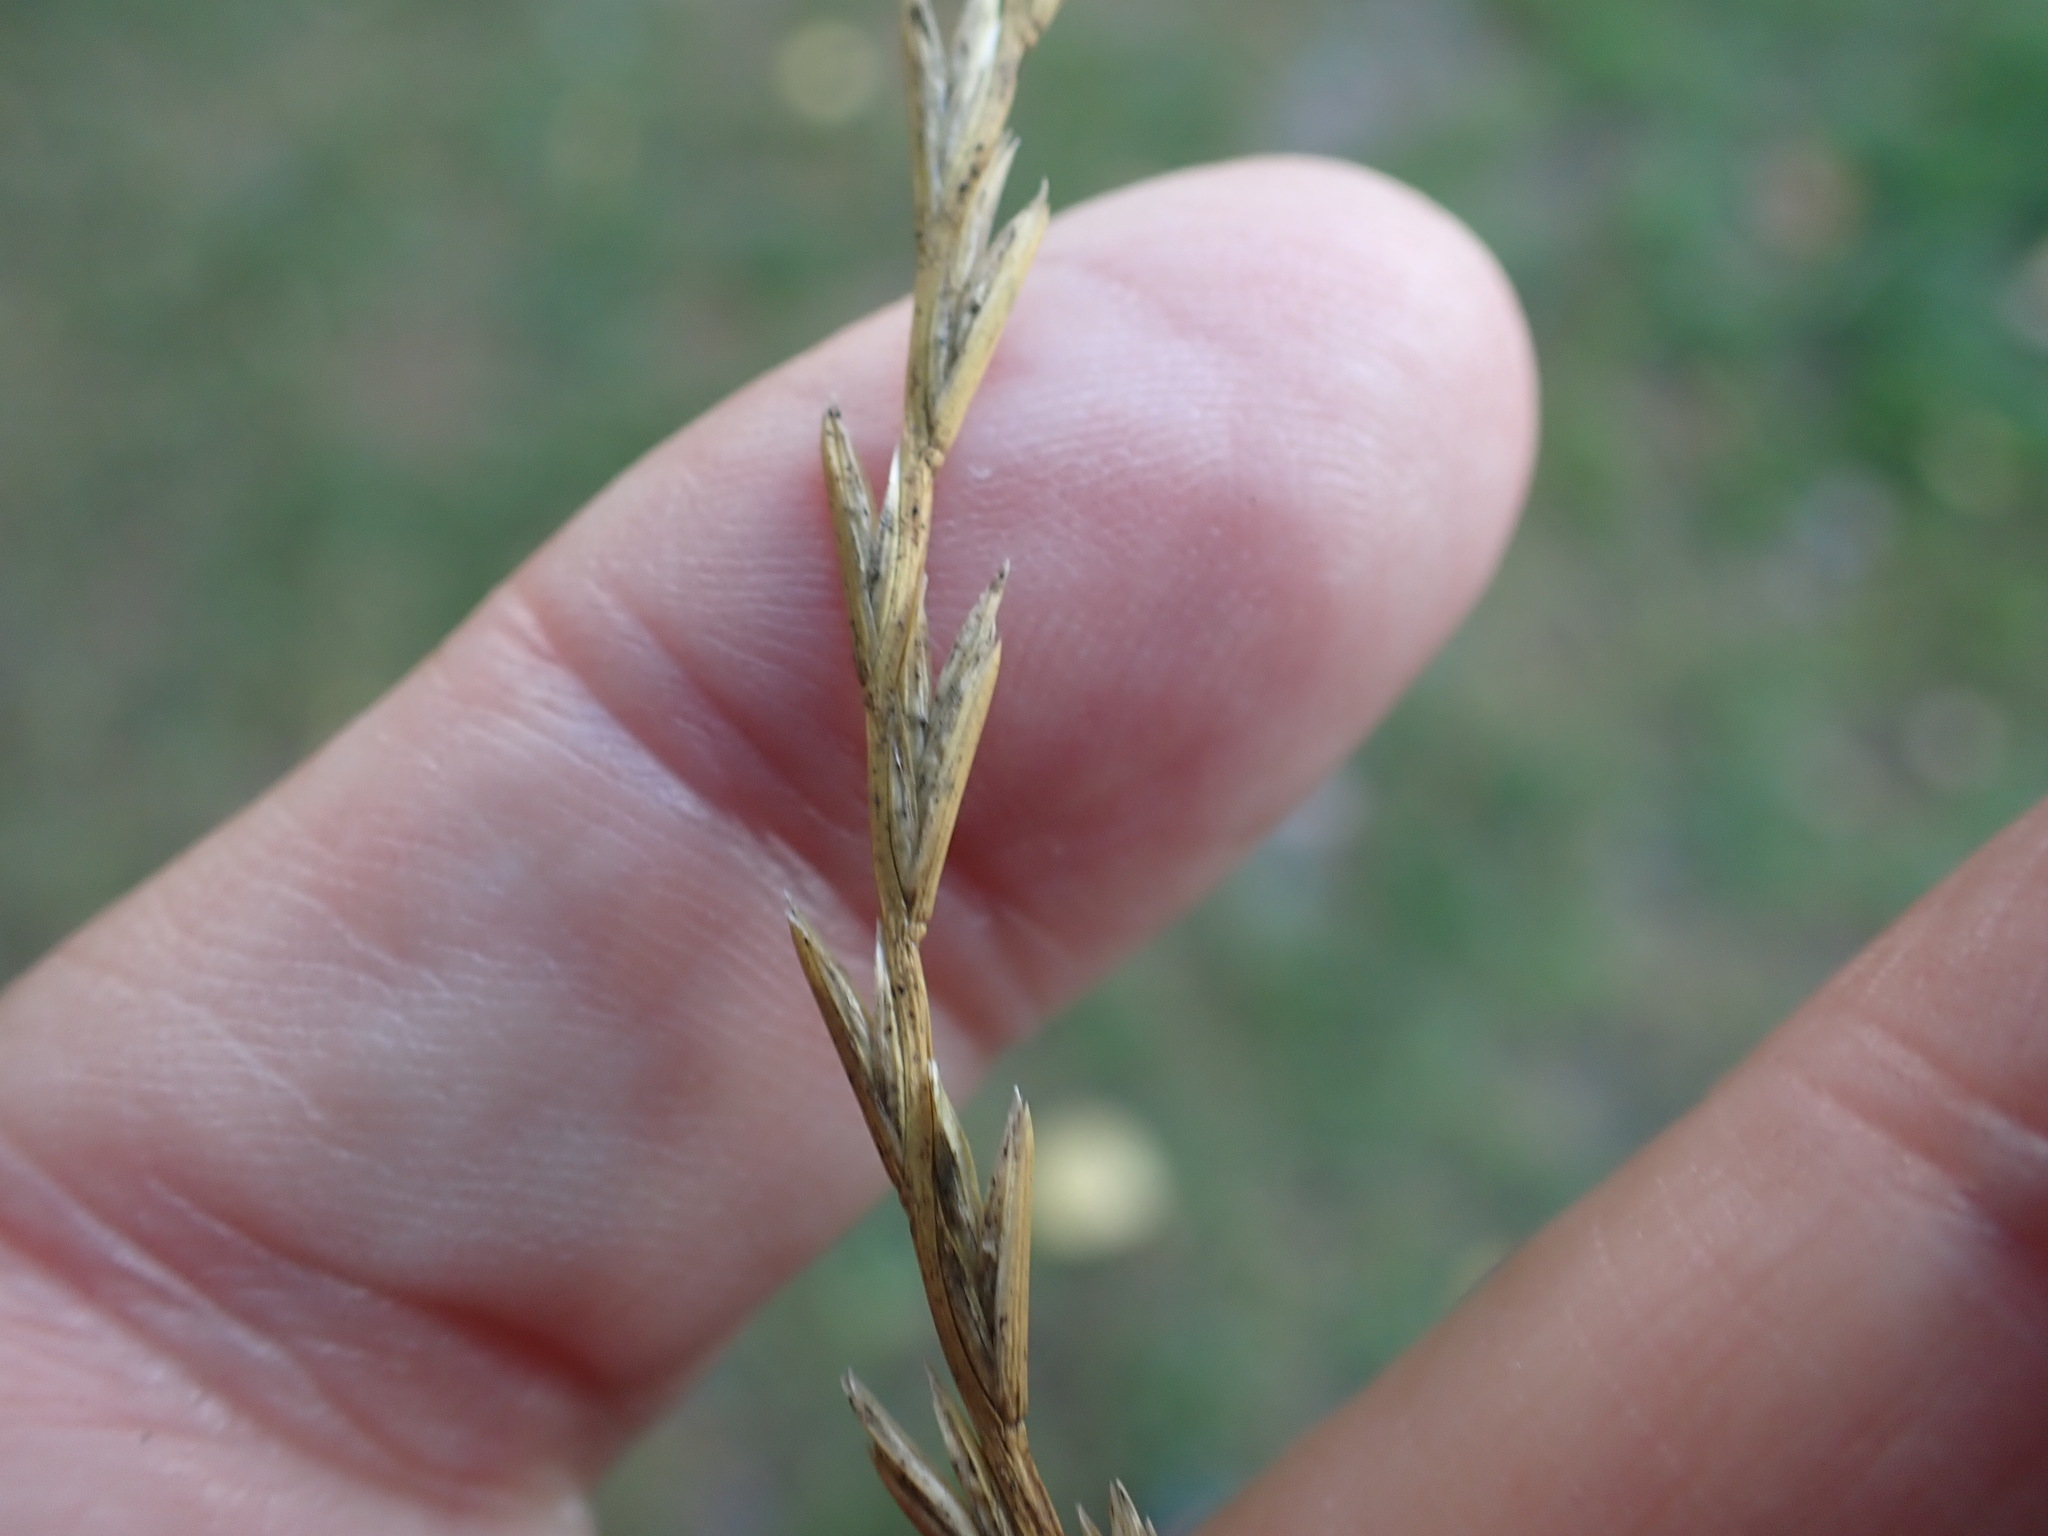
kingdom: Plantae
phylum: Tracheophyta
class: Liliopsida
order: Poales
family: Poaceae
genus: Lolium
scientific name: Lolium perenne
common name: Perennial ryegrass
